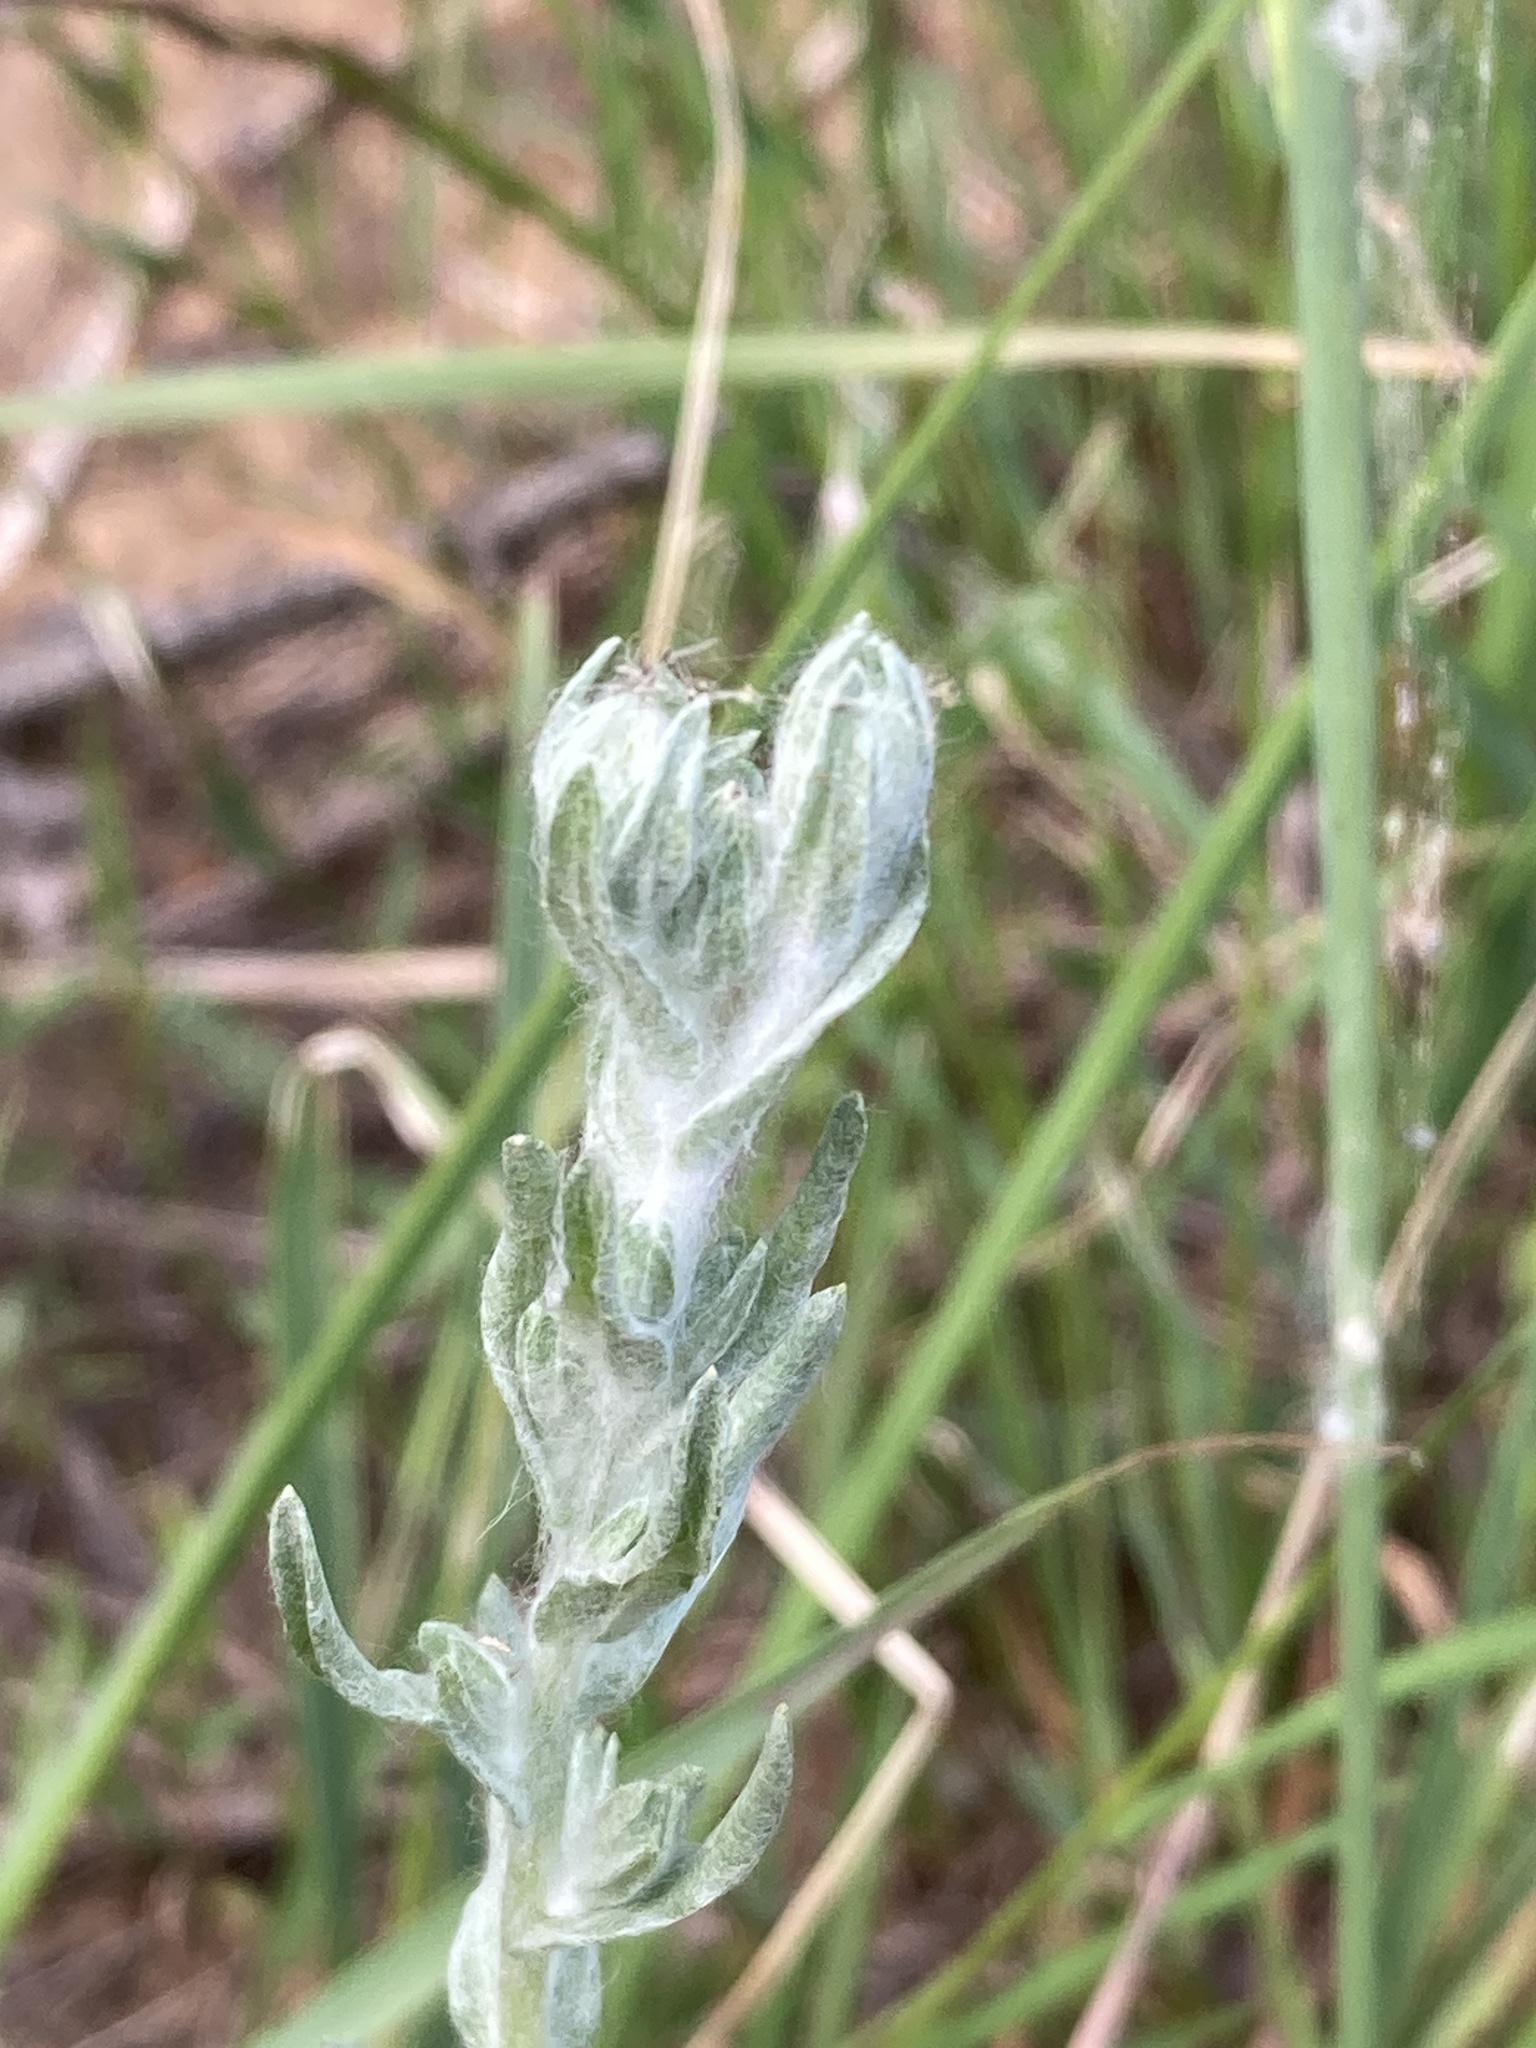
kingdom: Plantae
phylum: Tracheophyta
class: Magnoliopsida
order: Asterales
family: Asteraceae
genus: Filago
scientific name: Filago arvensis
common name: Field cudweed
